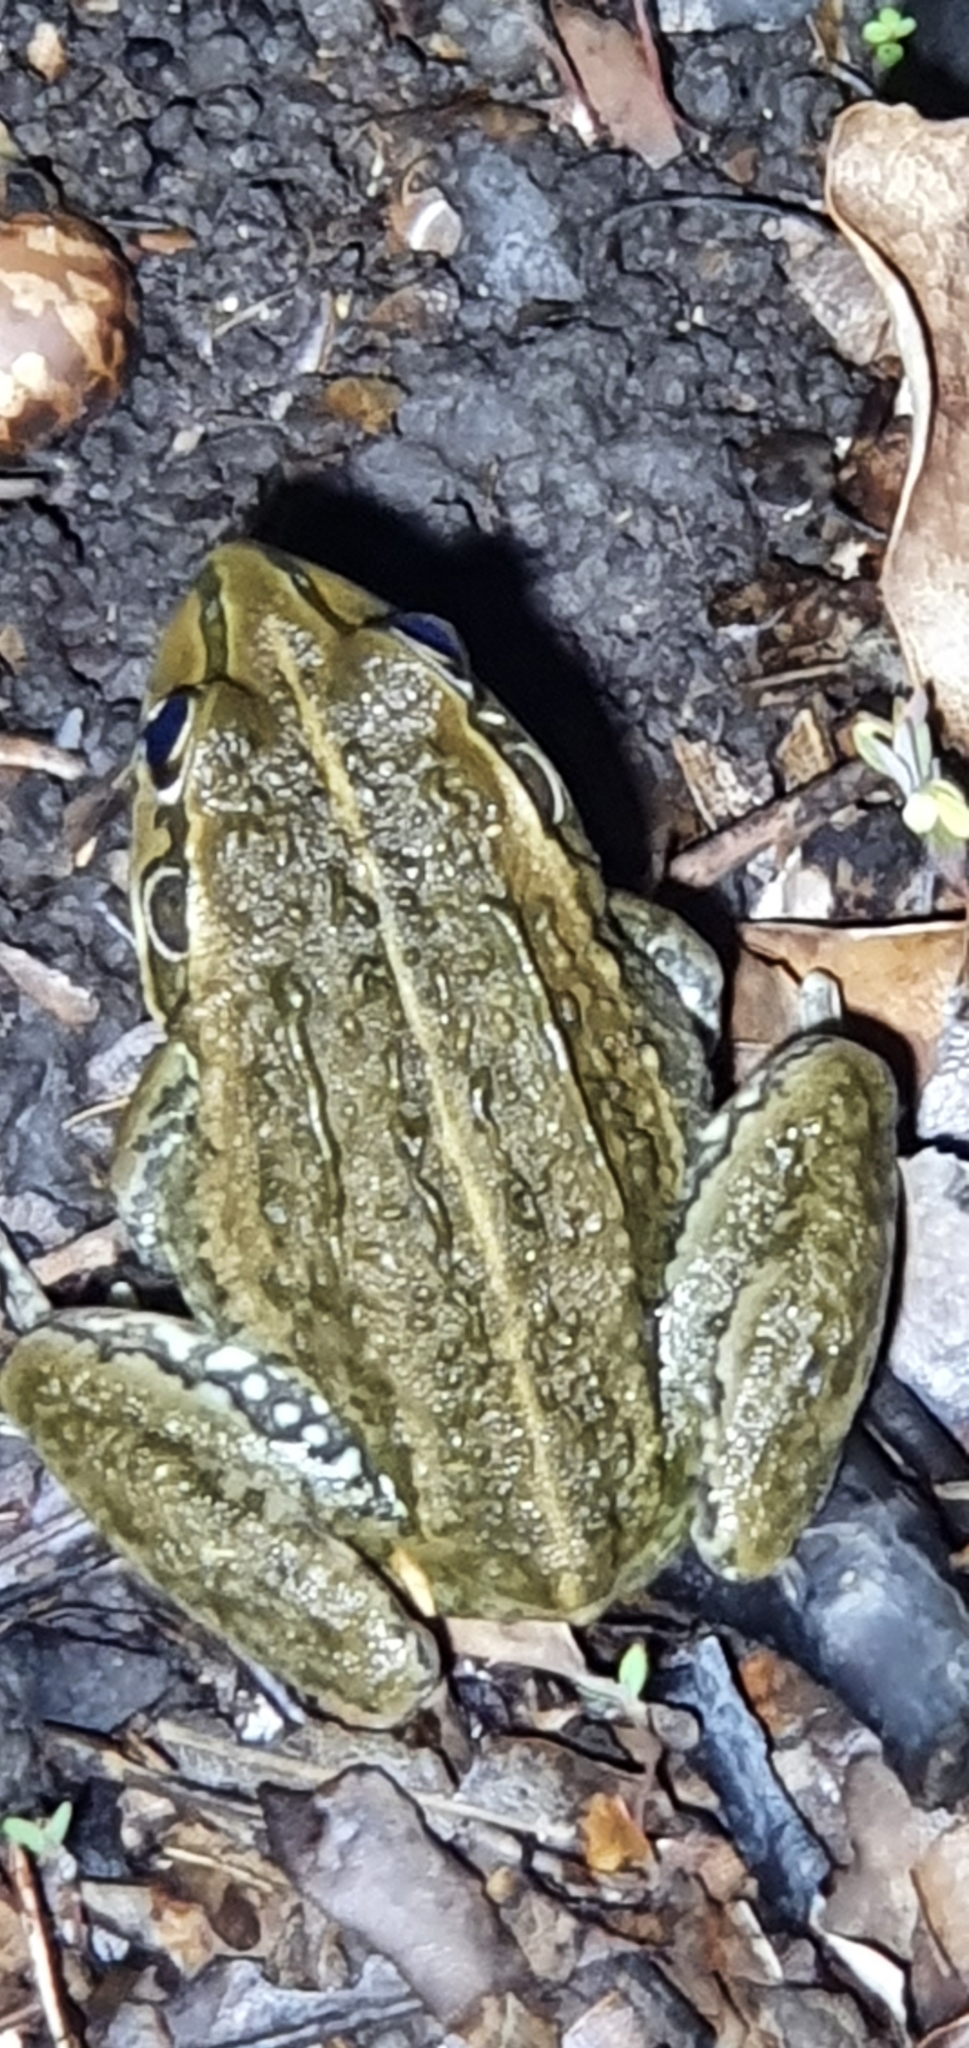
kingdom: Animalia
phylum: Chordata
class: Amphibia
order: Anura
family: Pelodryadidae
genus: Ranoidea
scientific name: Ranoidea alboguttata
